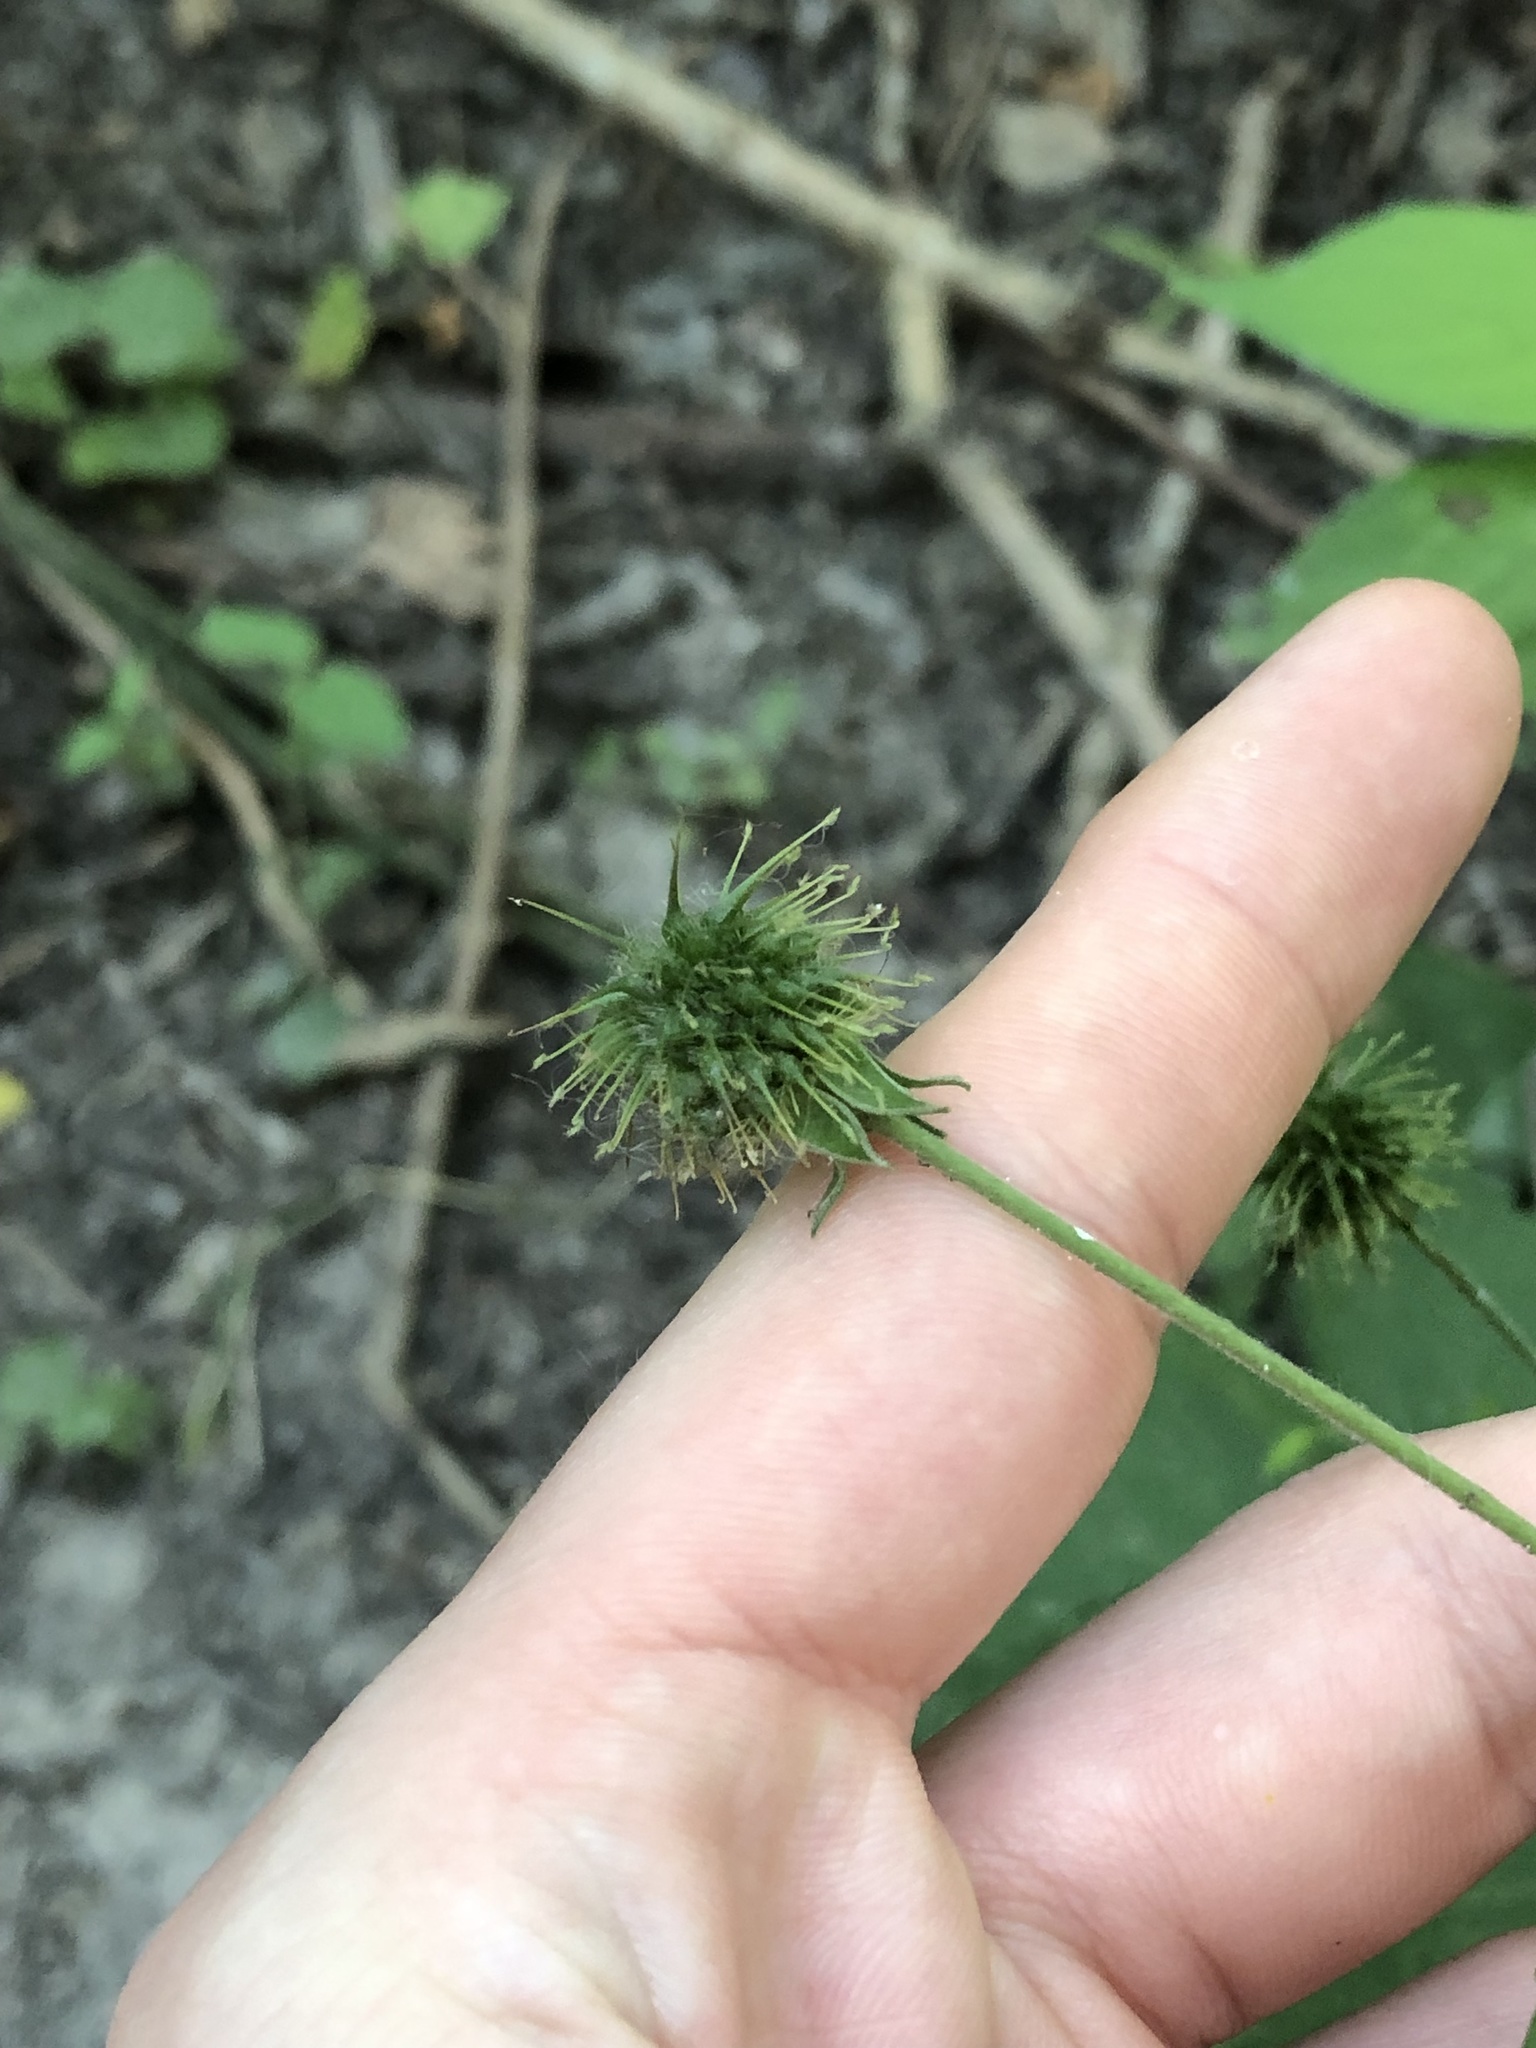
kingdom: Plantae
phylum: Tracheophyta
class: Magnoliopsida
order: Rosales
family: Rosaceae
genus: Geum
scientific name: Geum canadense
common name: White avens
